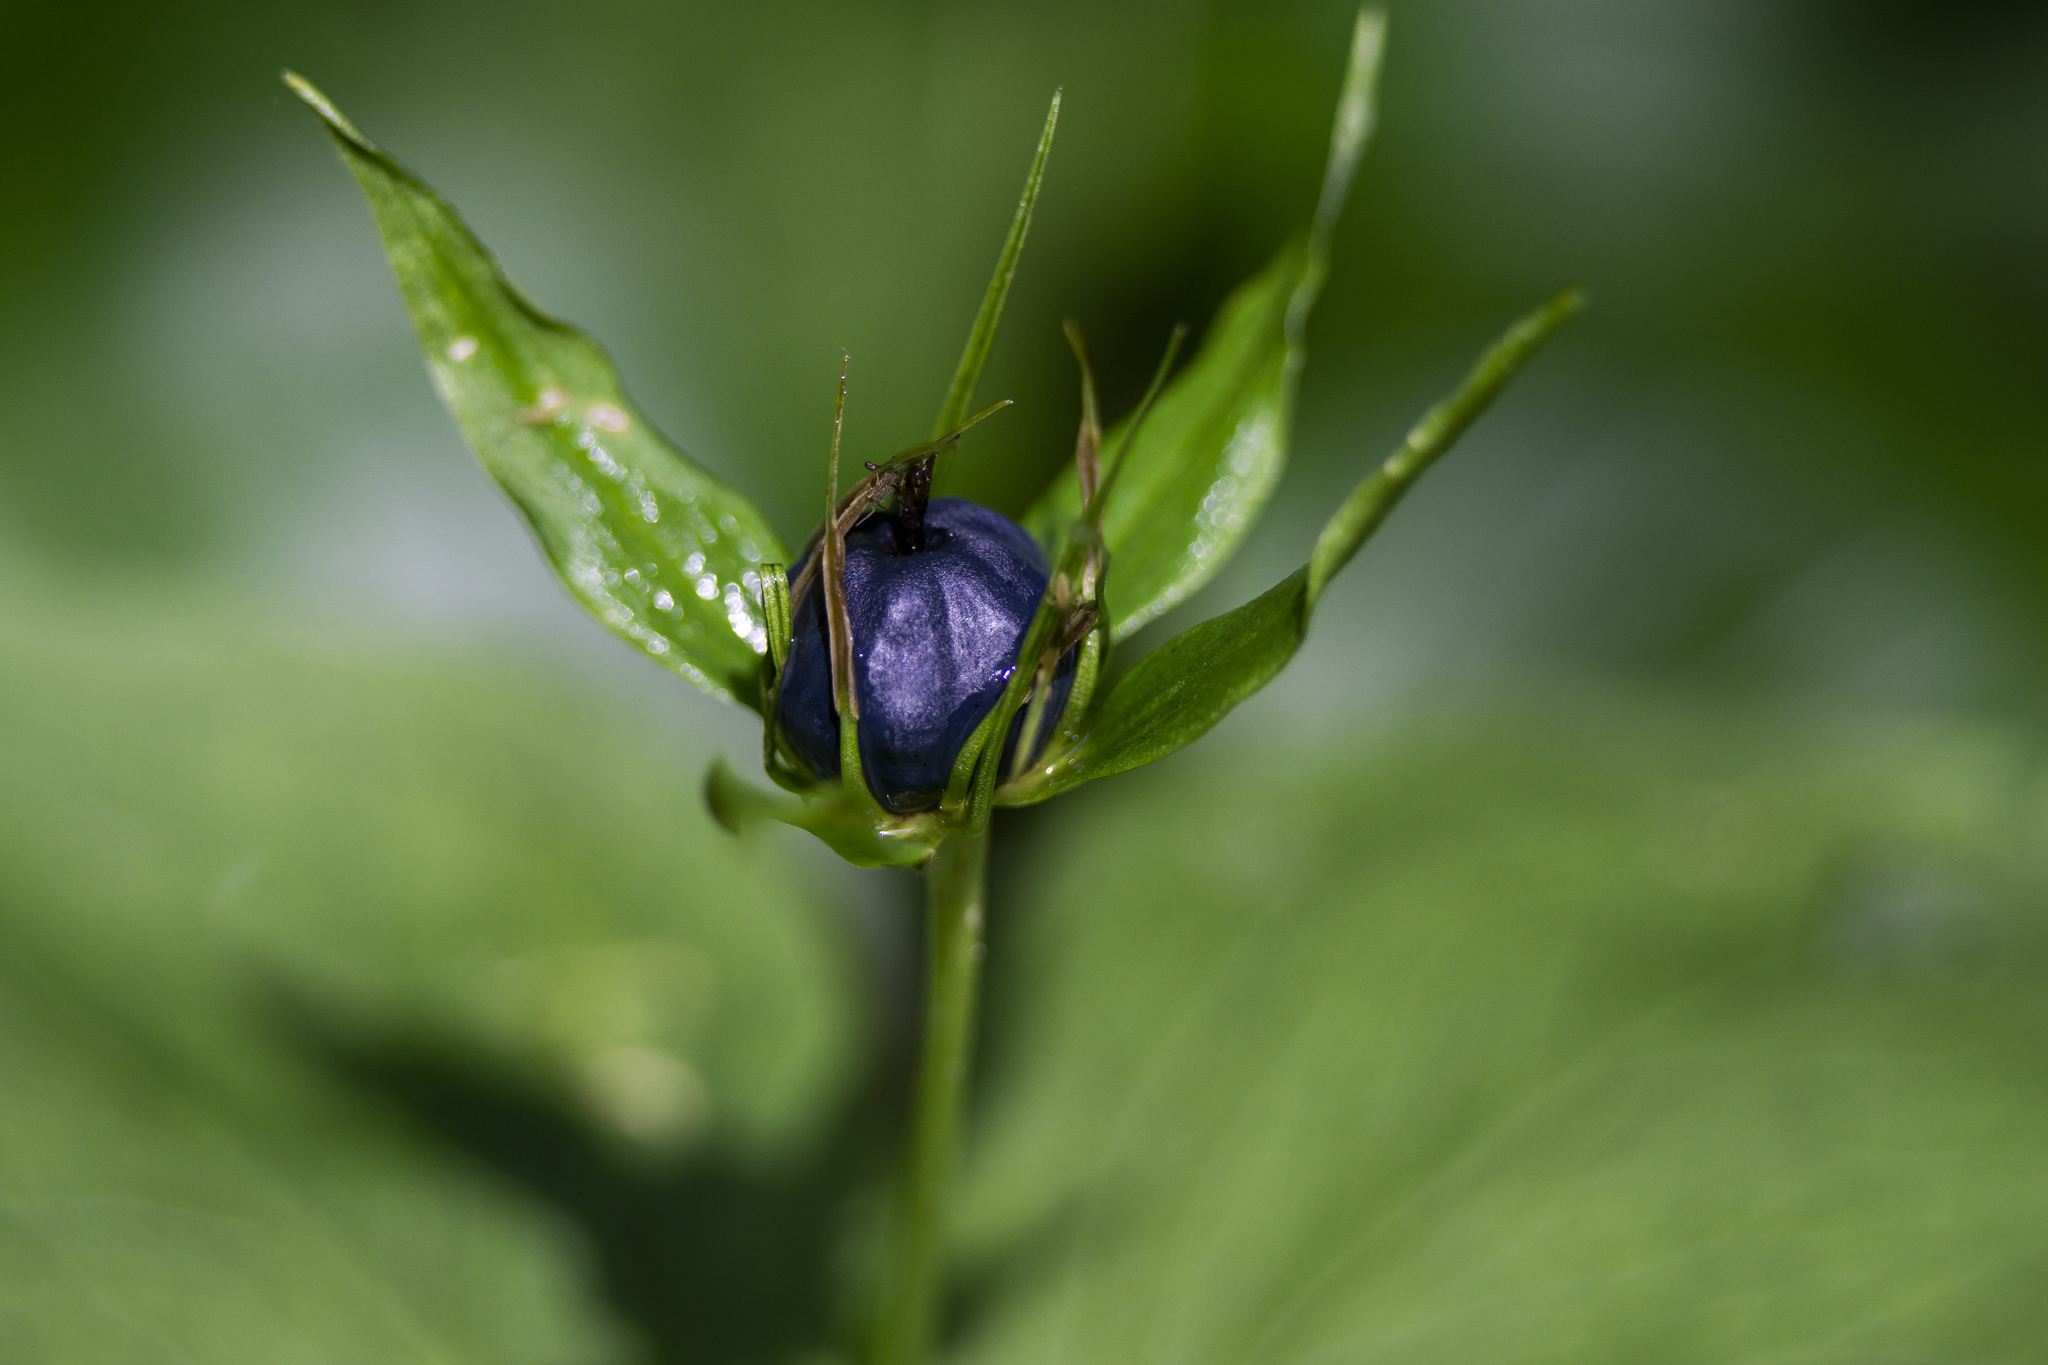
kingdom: Plantae
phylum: Tracheophyta
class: Liliopsida
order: Liliales
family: Melanthiaceae
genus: Paris
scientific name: Paris quadrifolia
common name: Herb-paris
